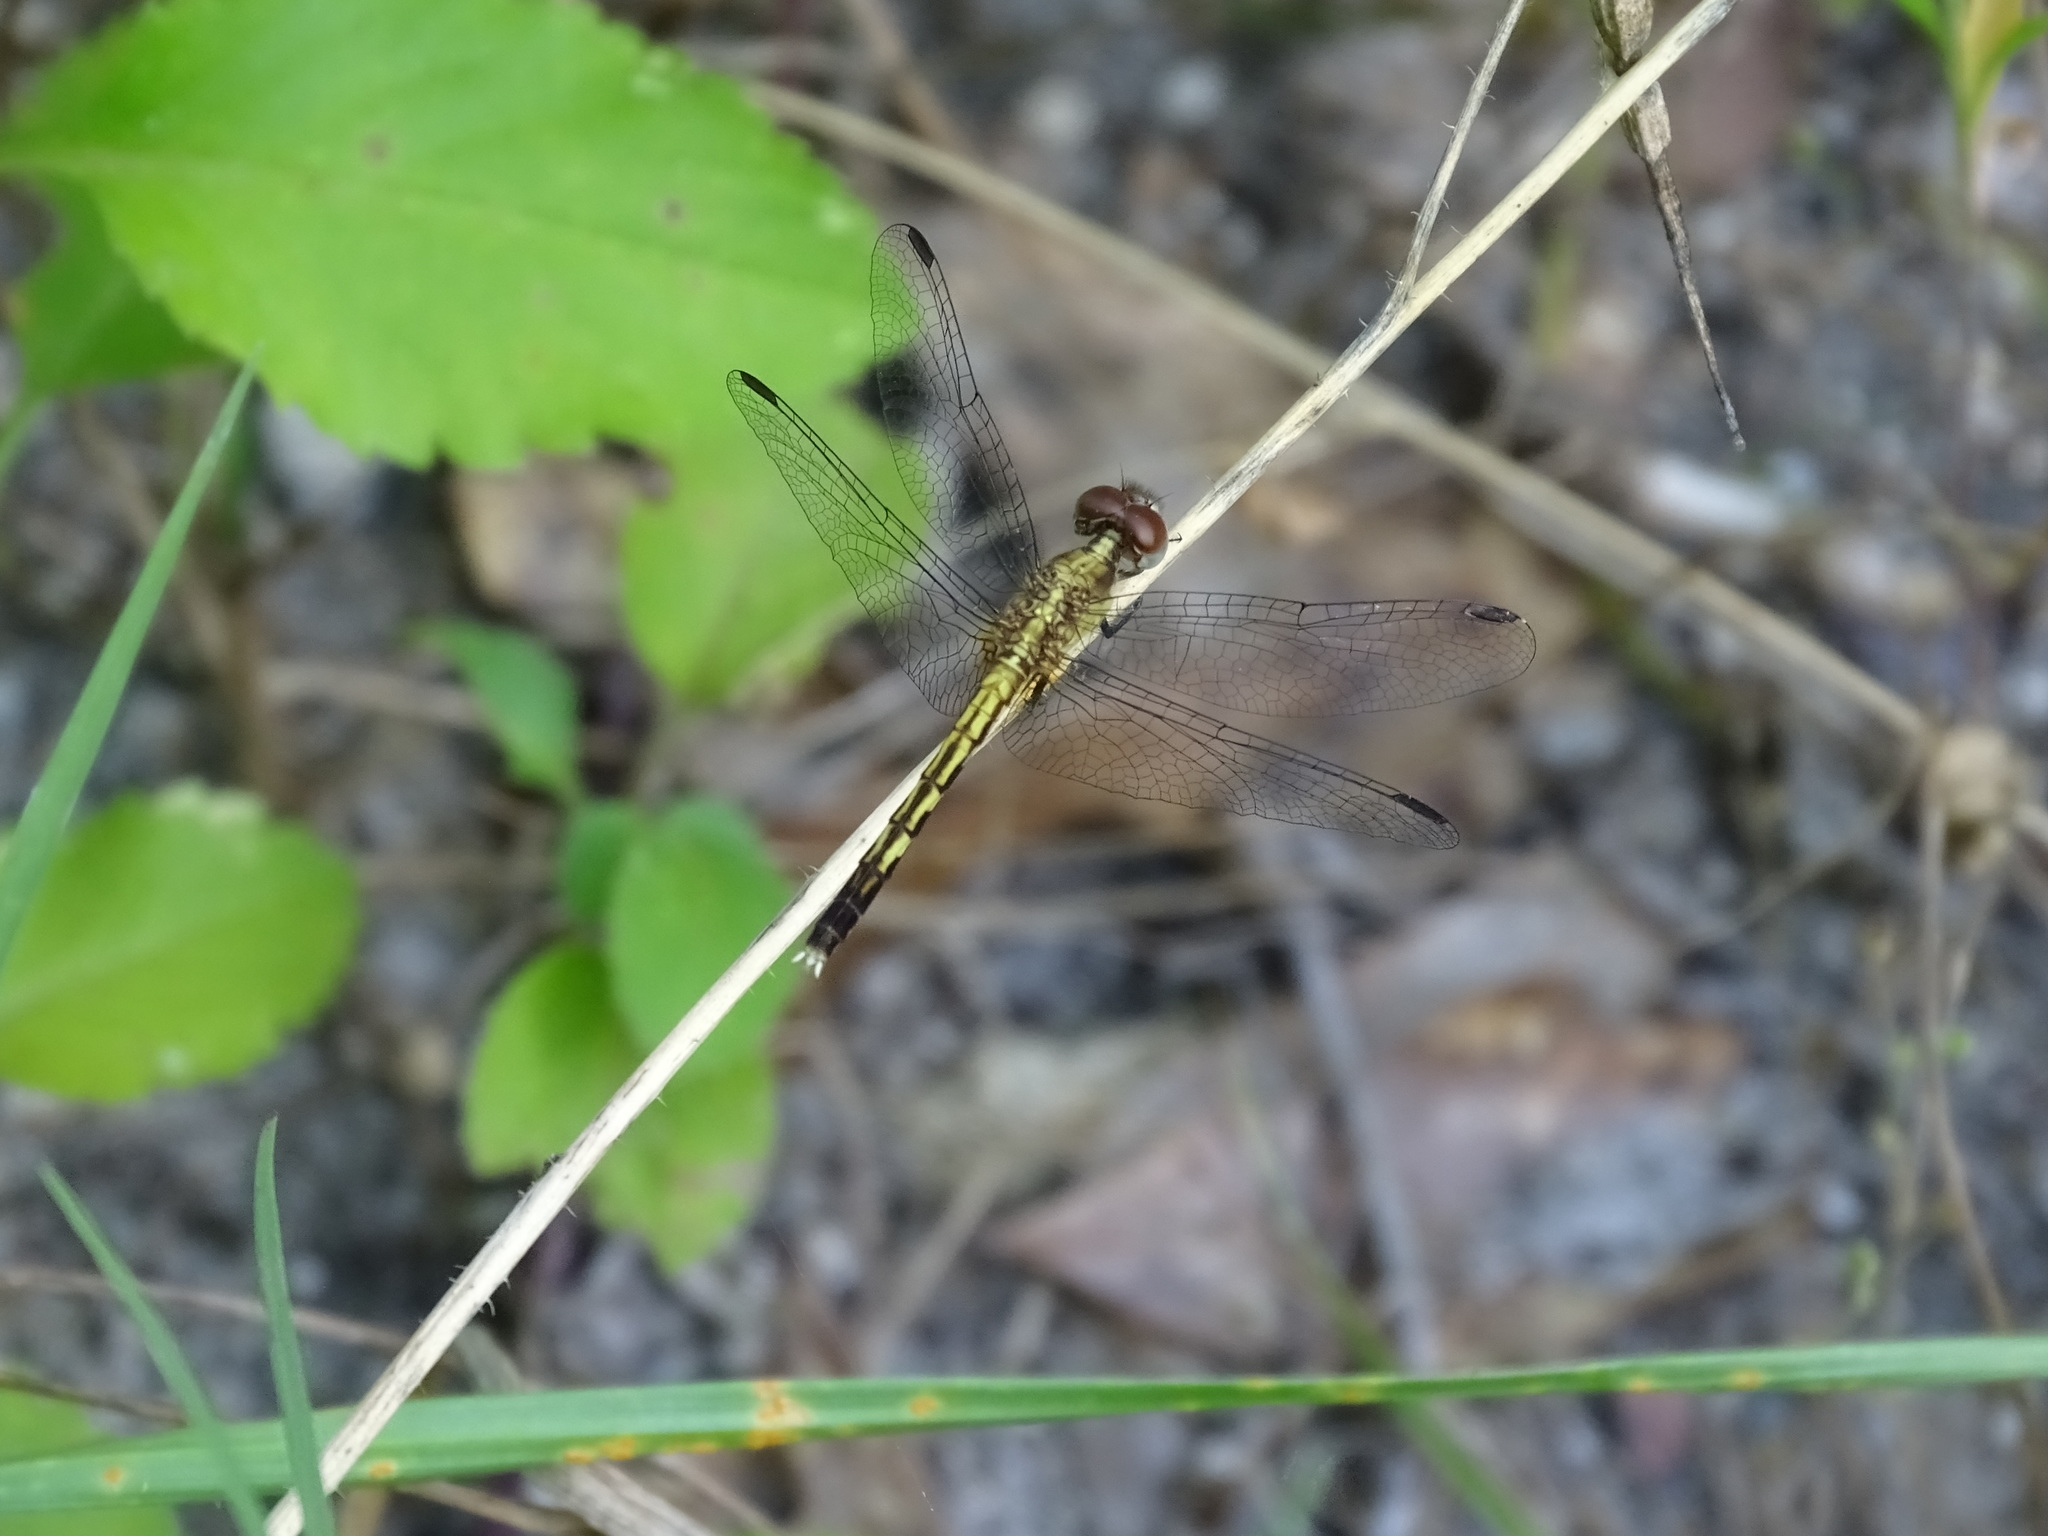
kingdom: Animalia
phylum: Arthropoda
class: Insecta
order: Odonata
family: Libellulidae
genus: Erythrodiplax
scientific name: Erythrodiplax minuscula
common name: Little blue dragonlet
